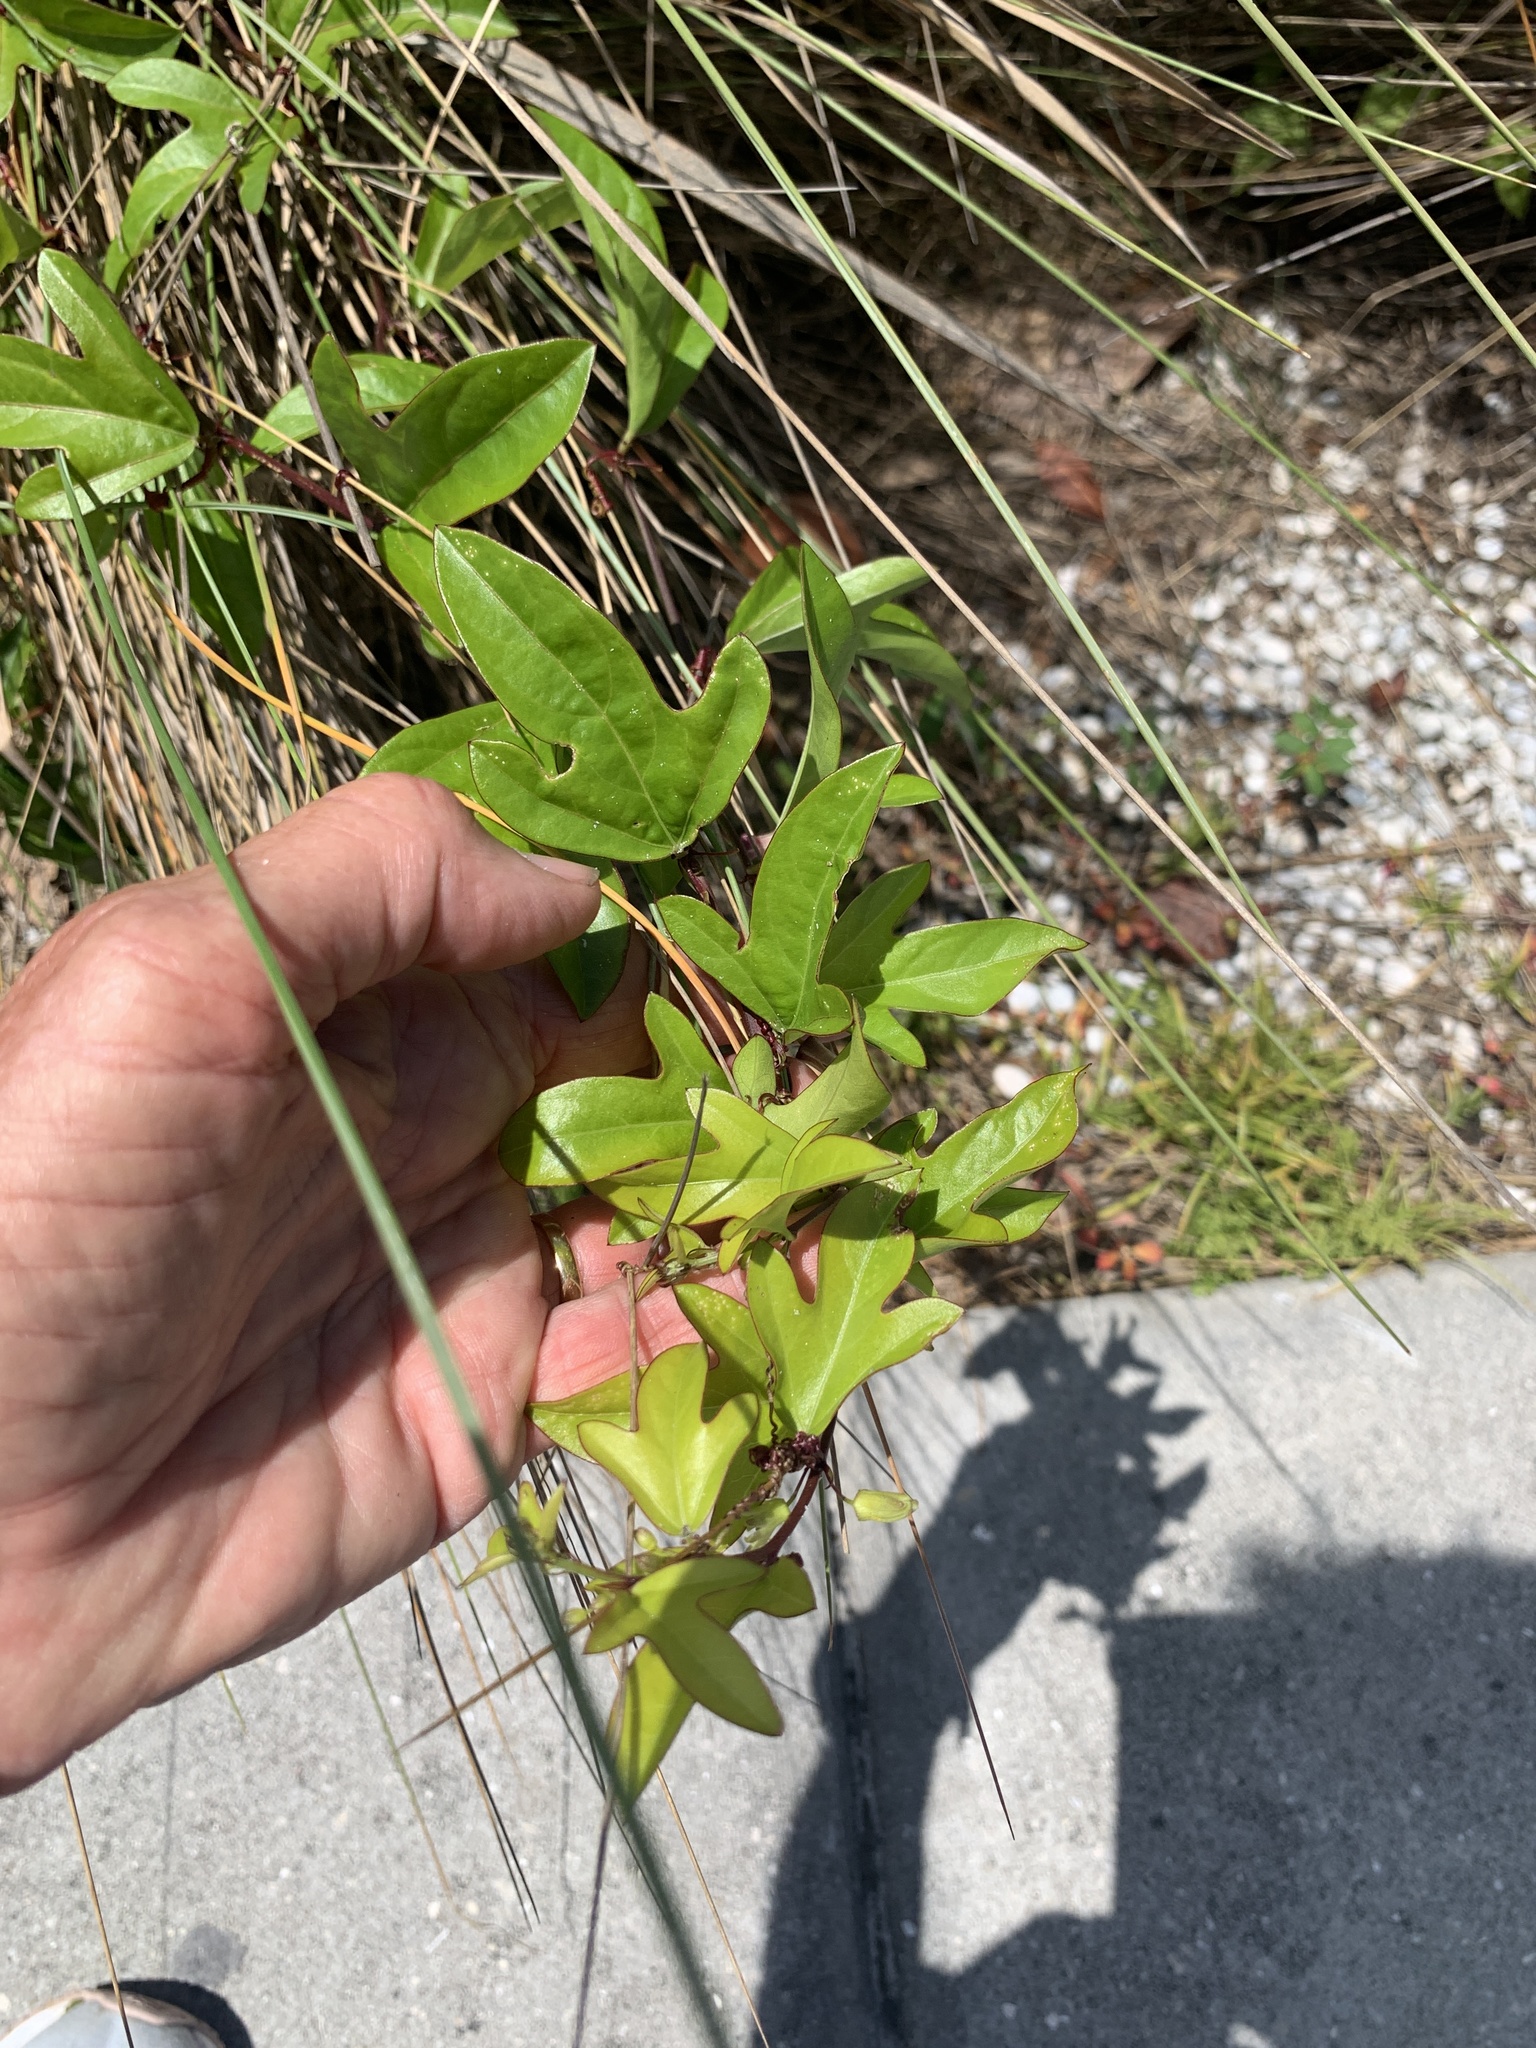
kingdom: Plantae
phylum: Tracheophyta
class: Magnoliopsida
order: Malpighiales
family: Passifloraceae
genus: Passiflora
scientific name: Passiflora pallida
